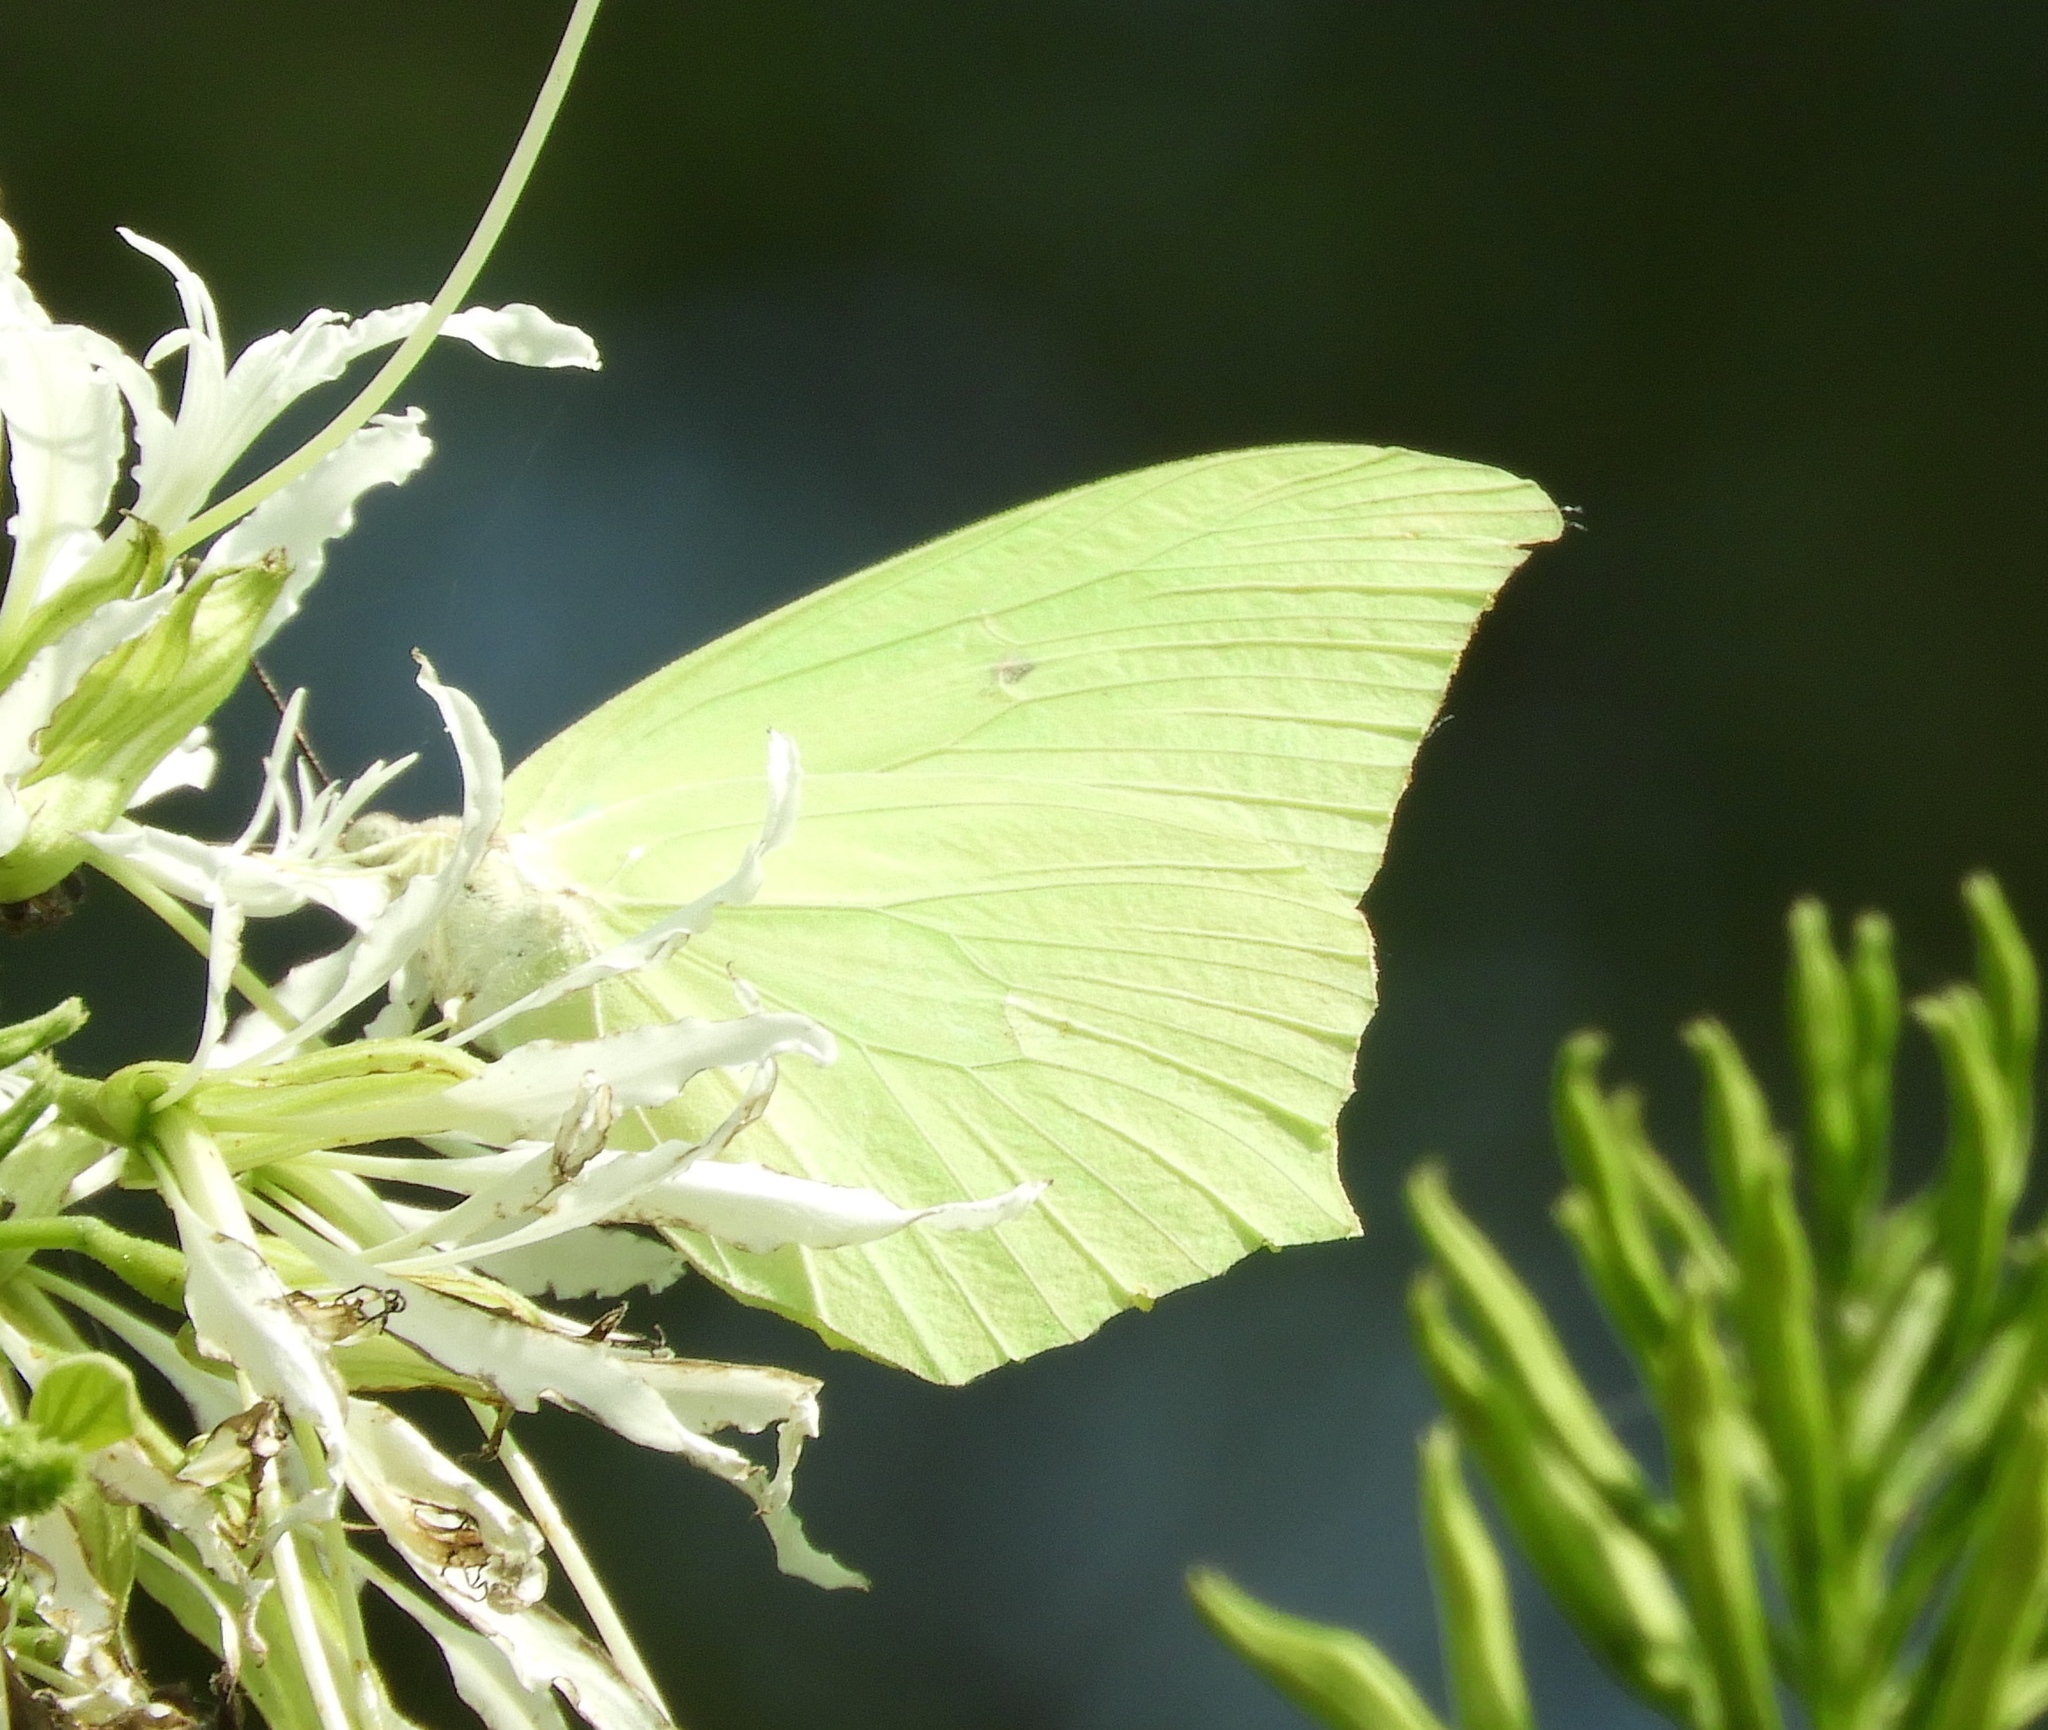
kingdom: Animalia
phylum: Arthropoda
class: Insecta
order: Lepidoptera
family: Pieridae
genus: Anteos
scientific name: Anteos maerula
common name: Angled sulphur
